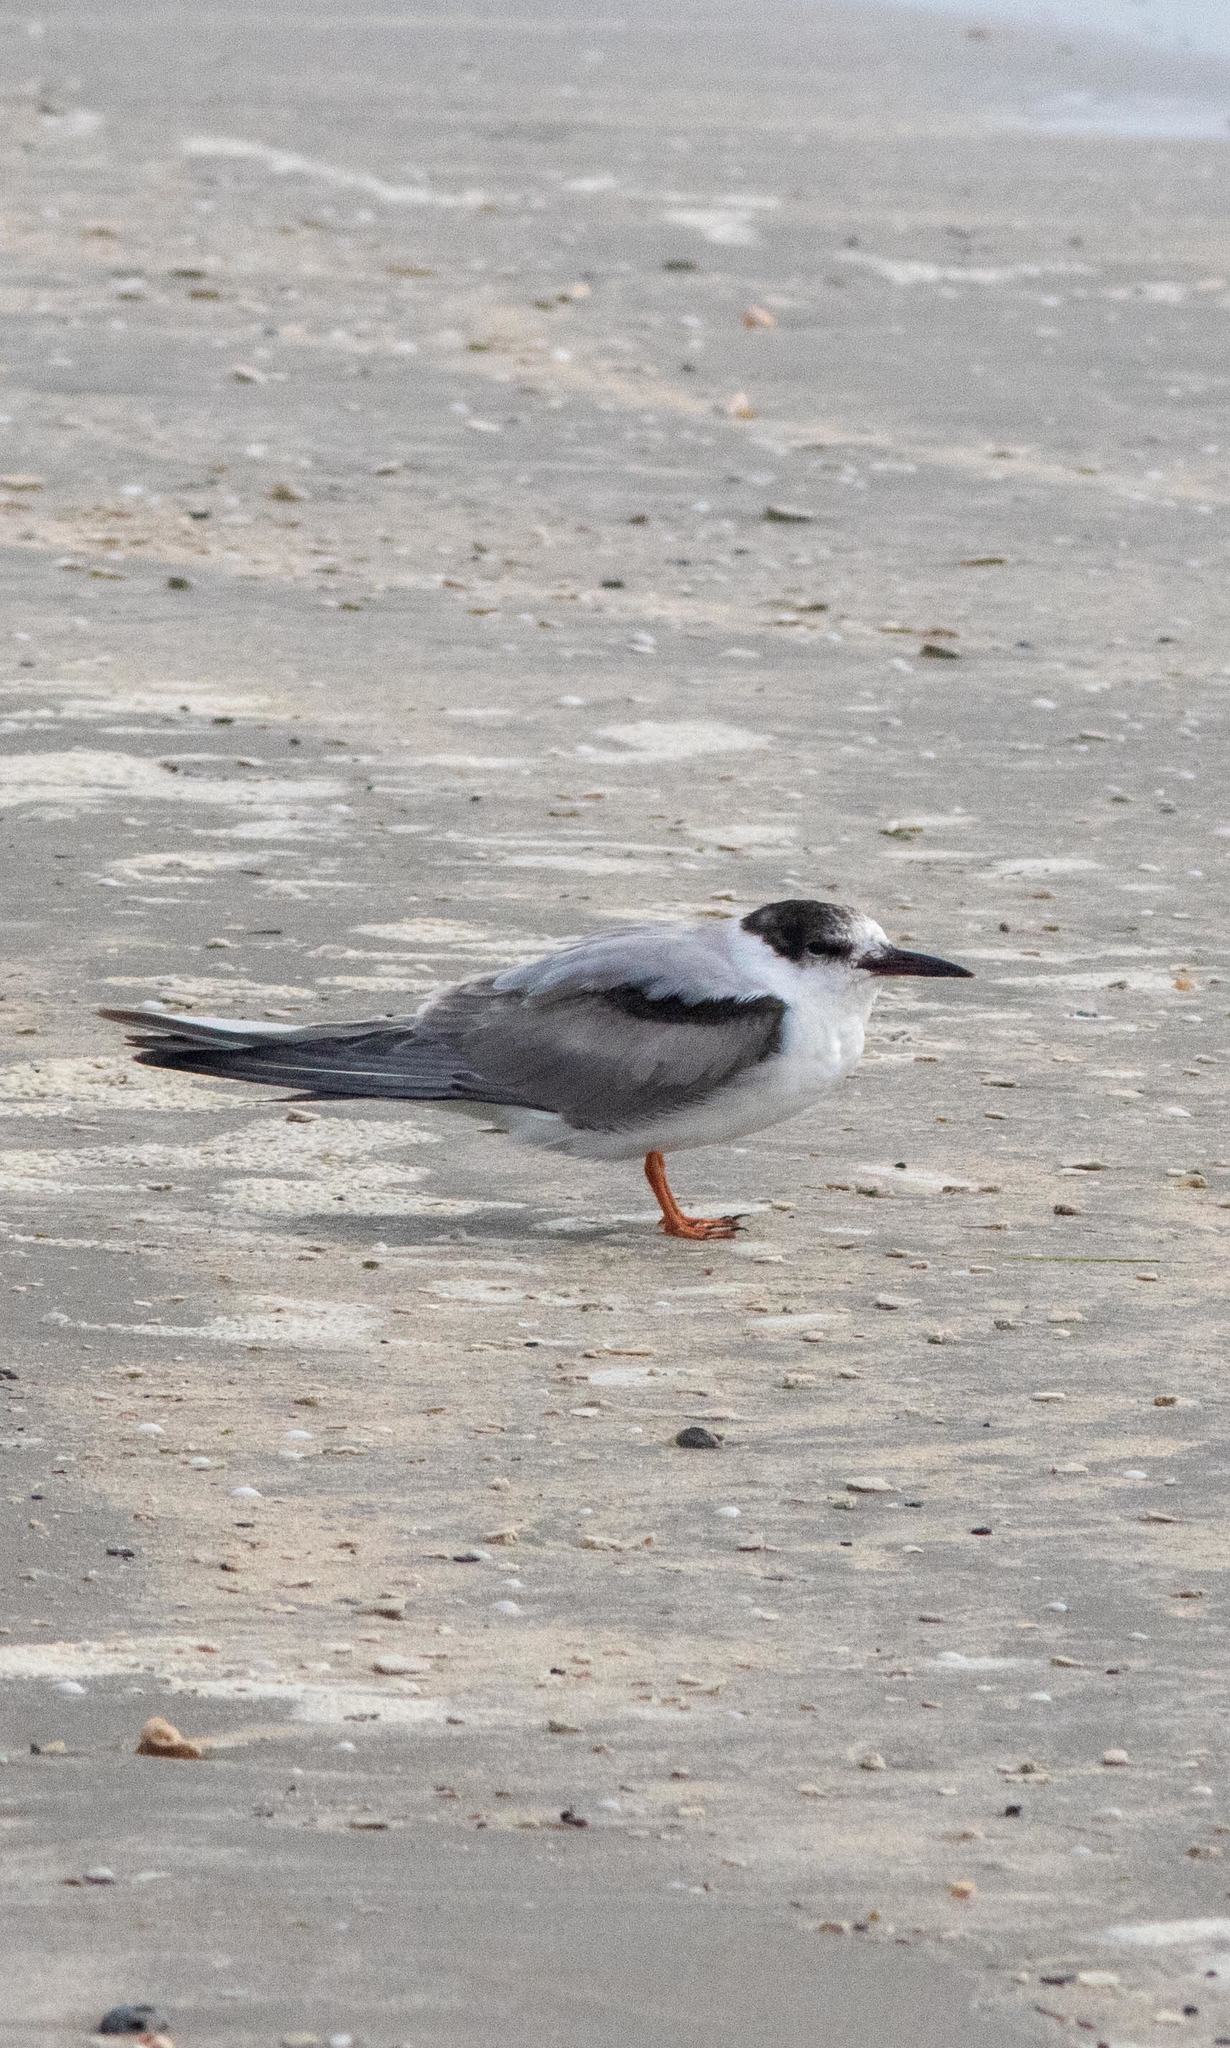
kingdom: Animalia
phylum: Chordata
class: Aves
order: Charadriiformes
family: Laridae
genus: Sterna
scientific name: Sterna hirundo
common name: Common tern
